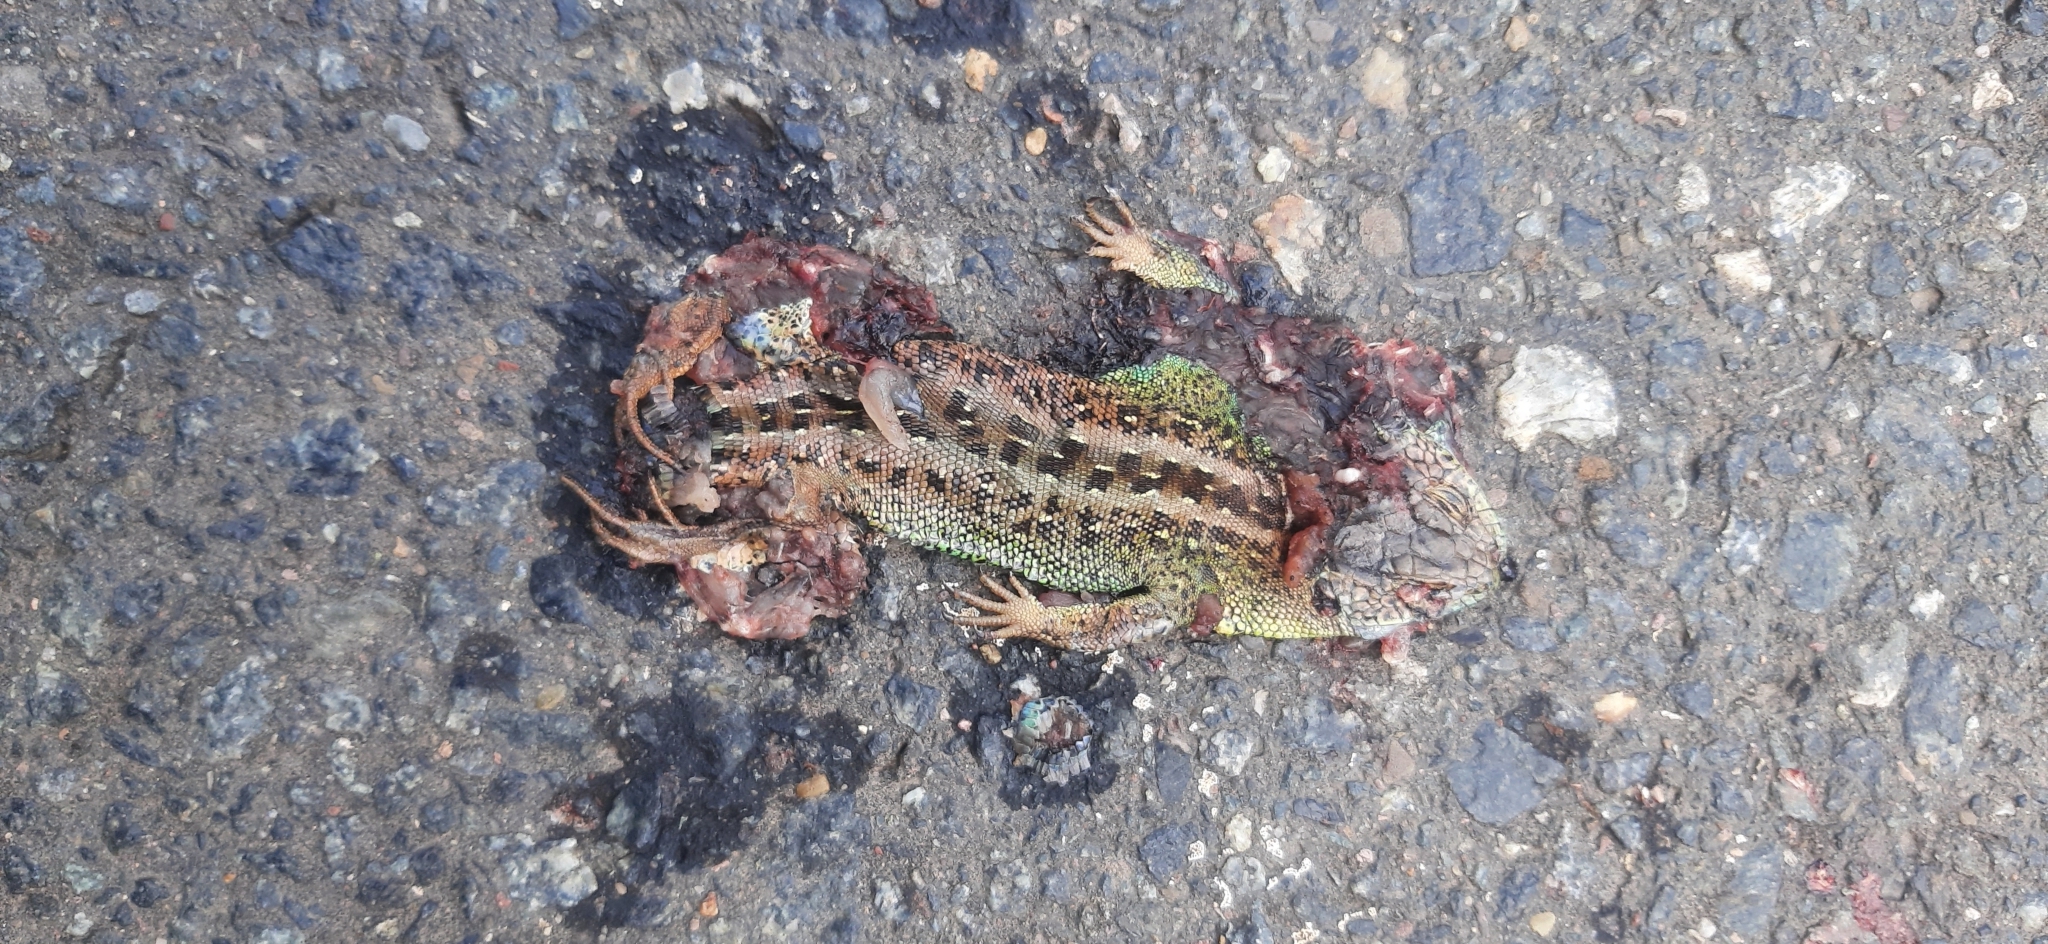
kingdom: Animalia
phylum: Chordata
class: Squamata
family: Lacertidae
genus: Lacerta
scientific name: Lacerta agilis
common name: Sand lizard
